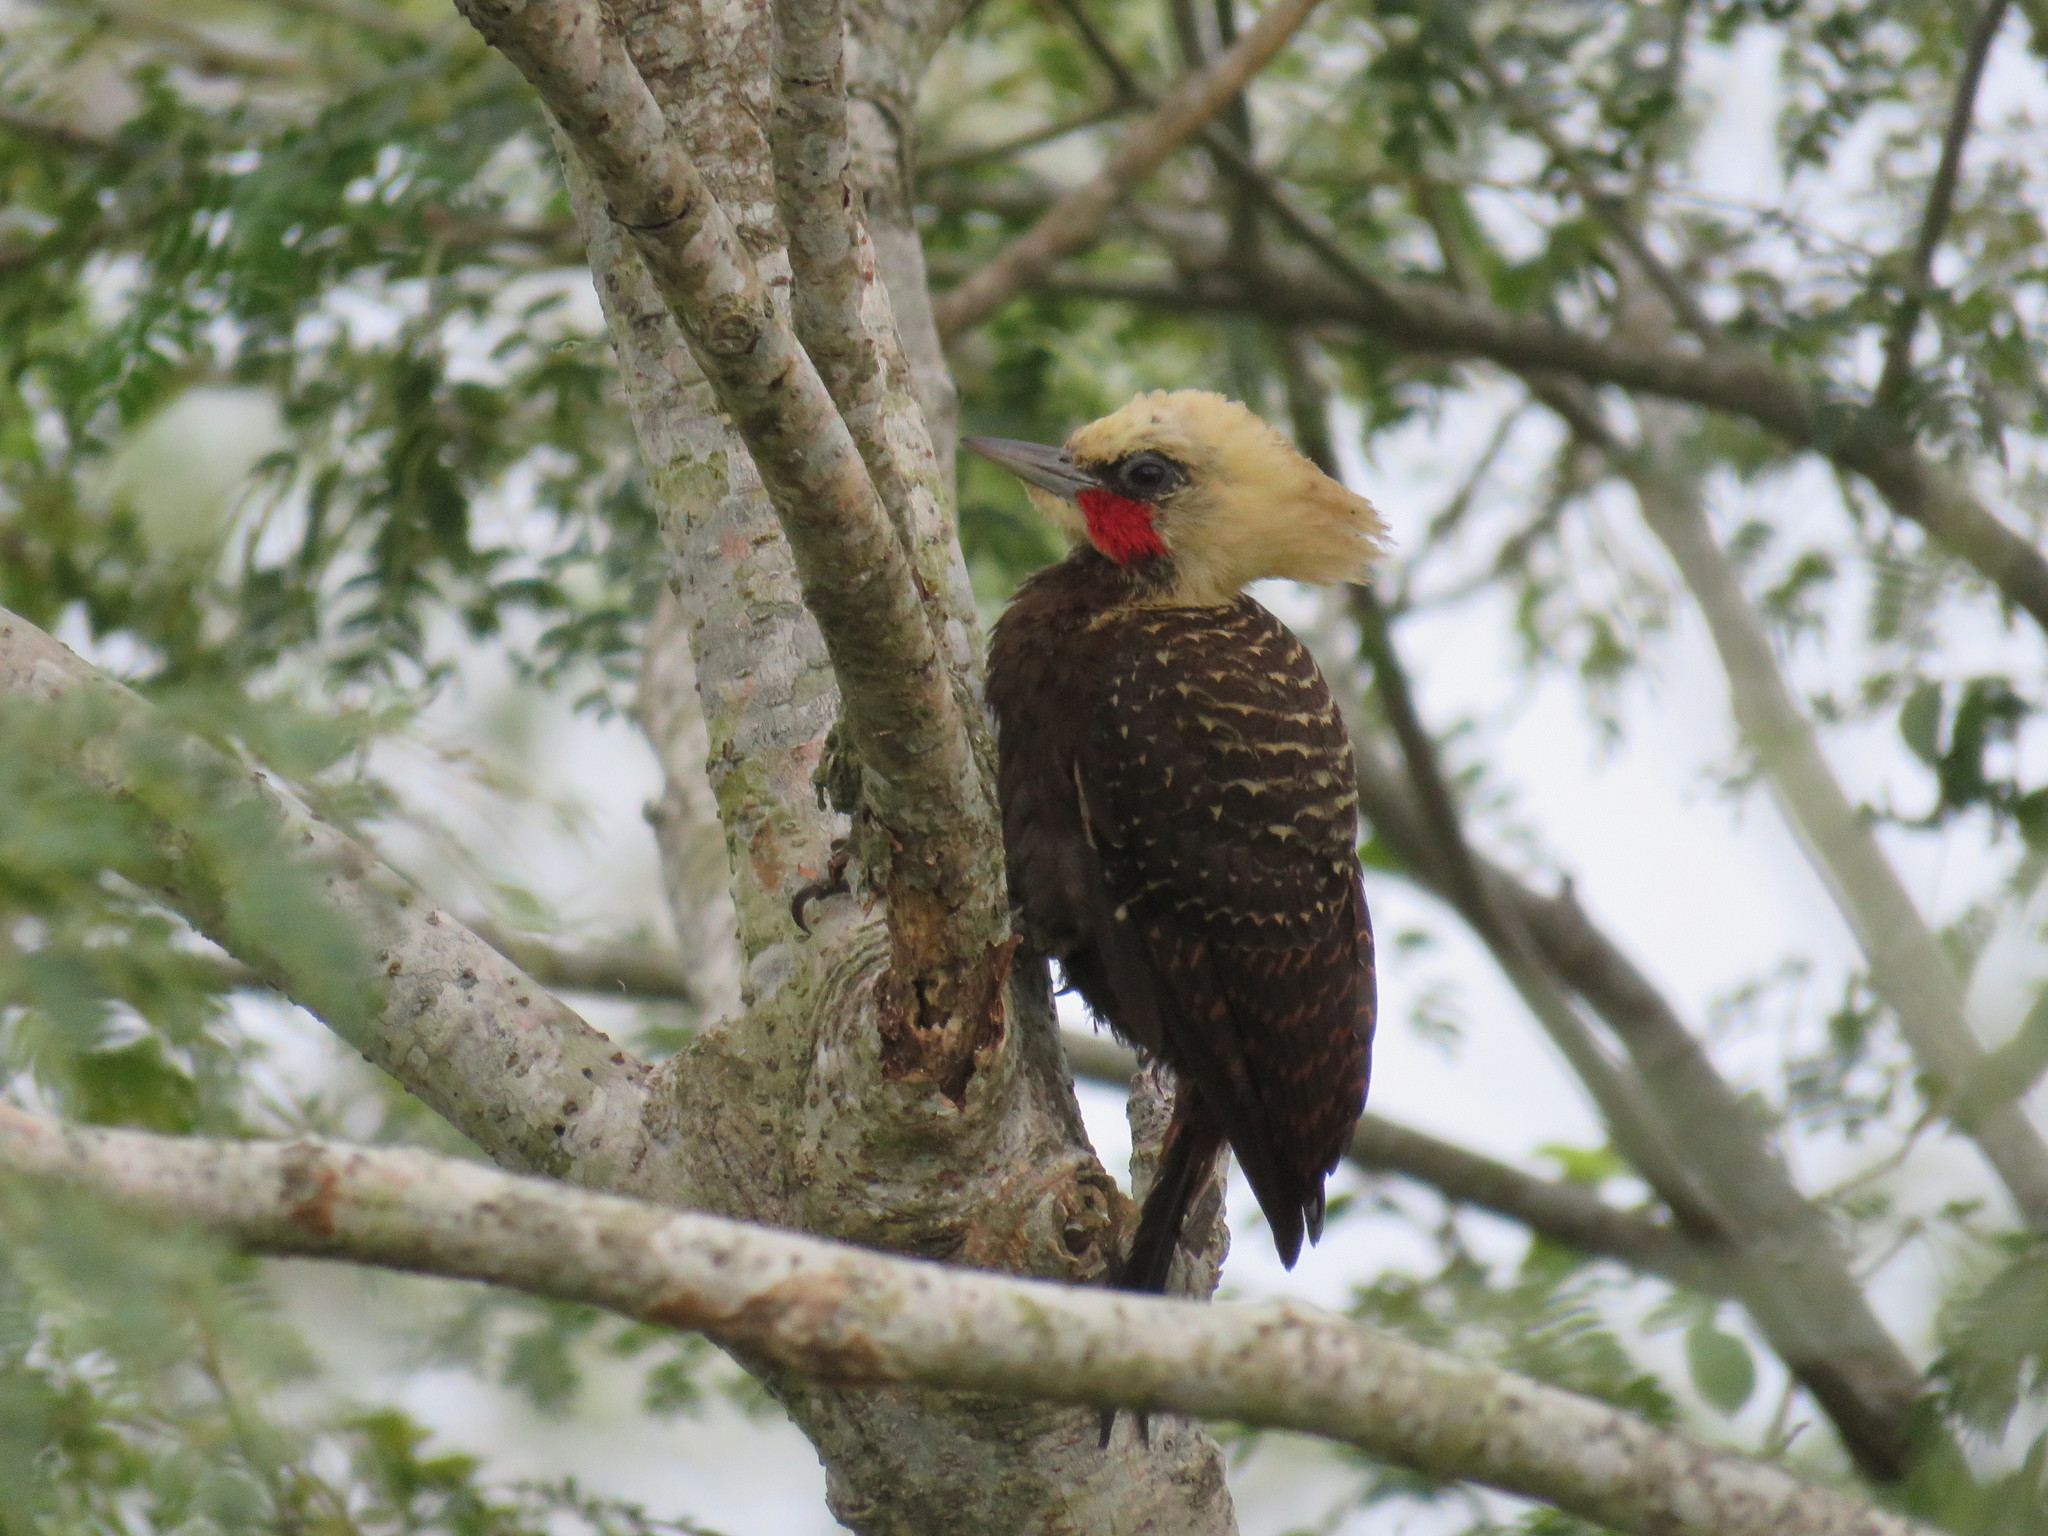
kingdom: Animalia
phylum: Chordata
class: Aves
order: Piciformes
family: Picidae
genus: Celeus
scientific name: Celeus lugubris
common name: Pale-crested woodpecker
